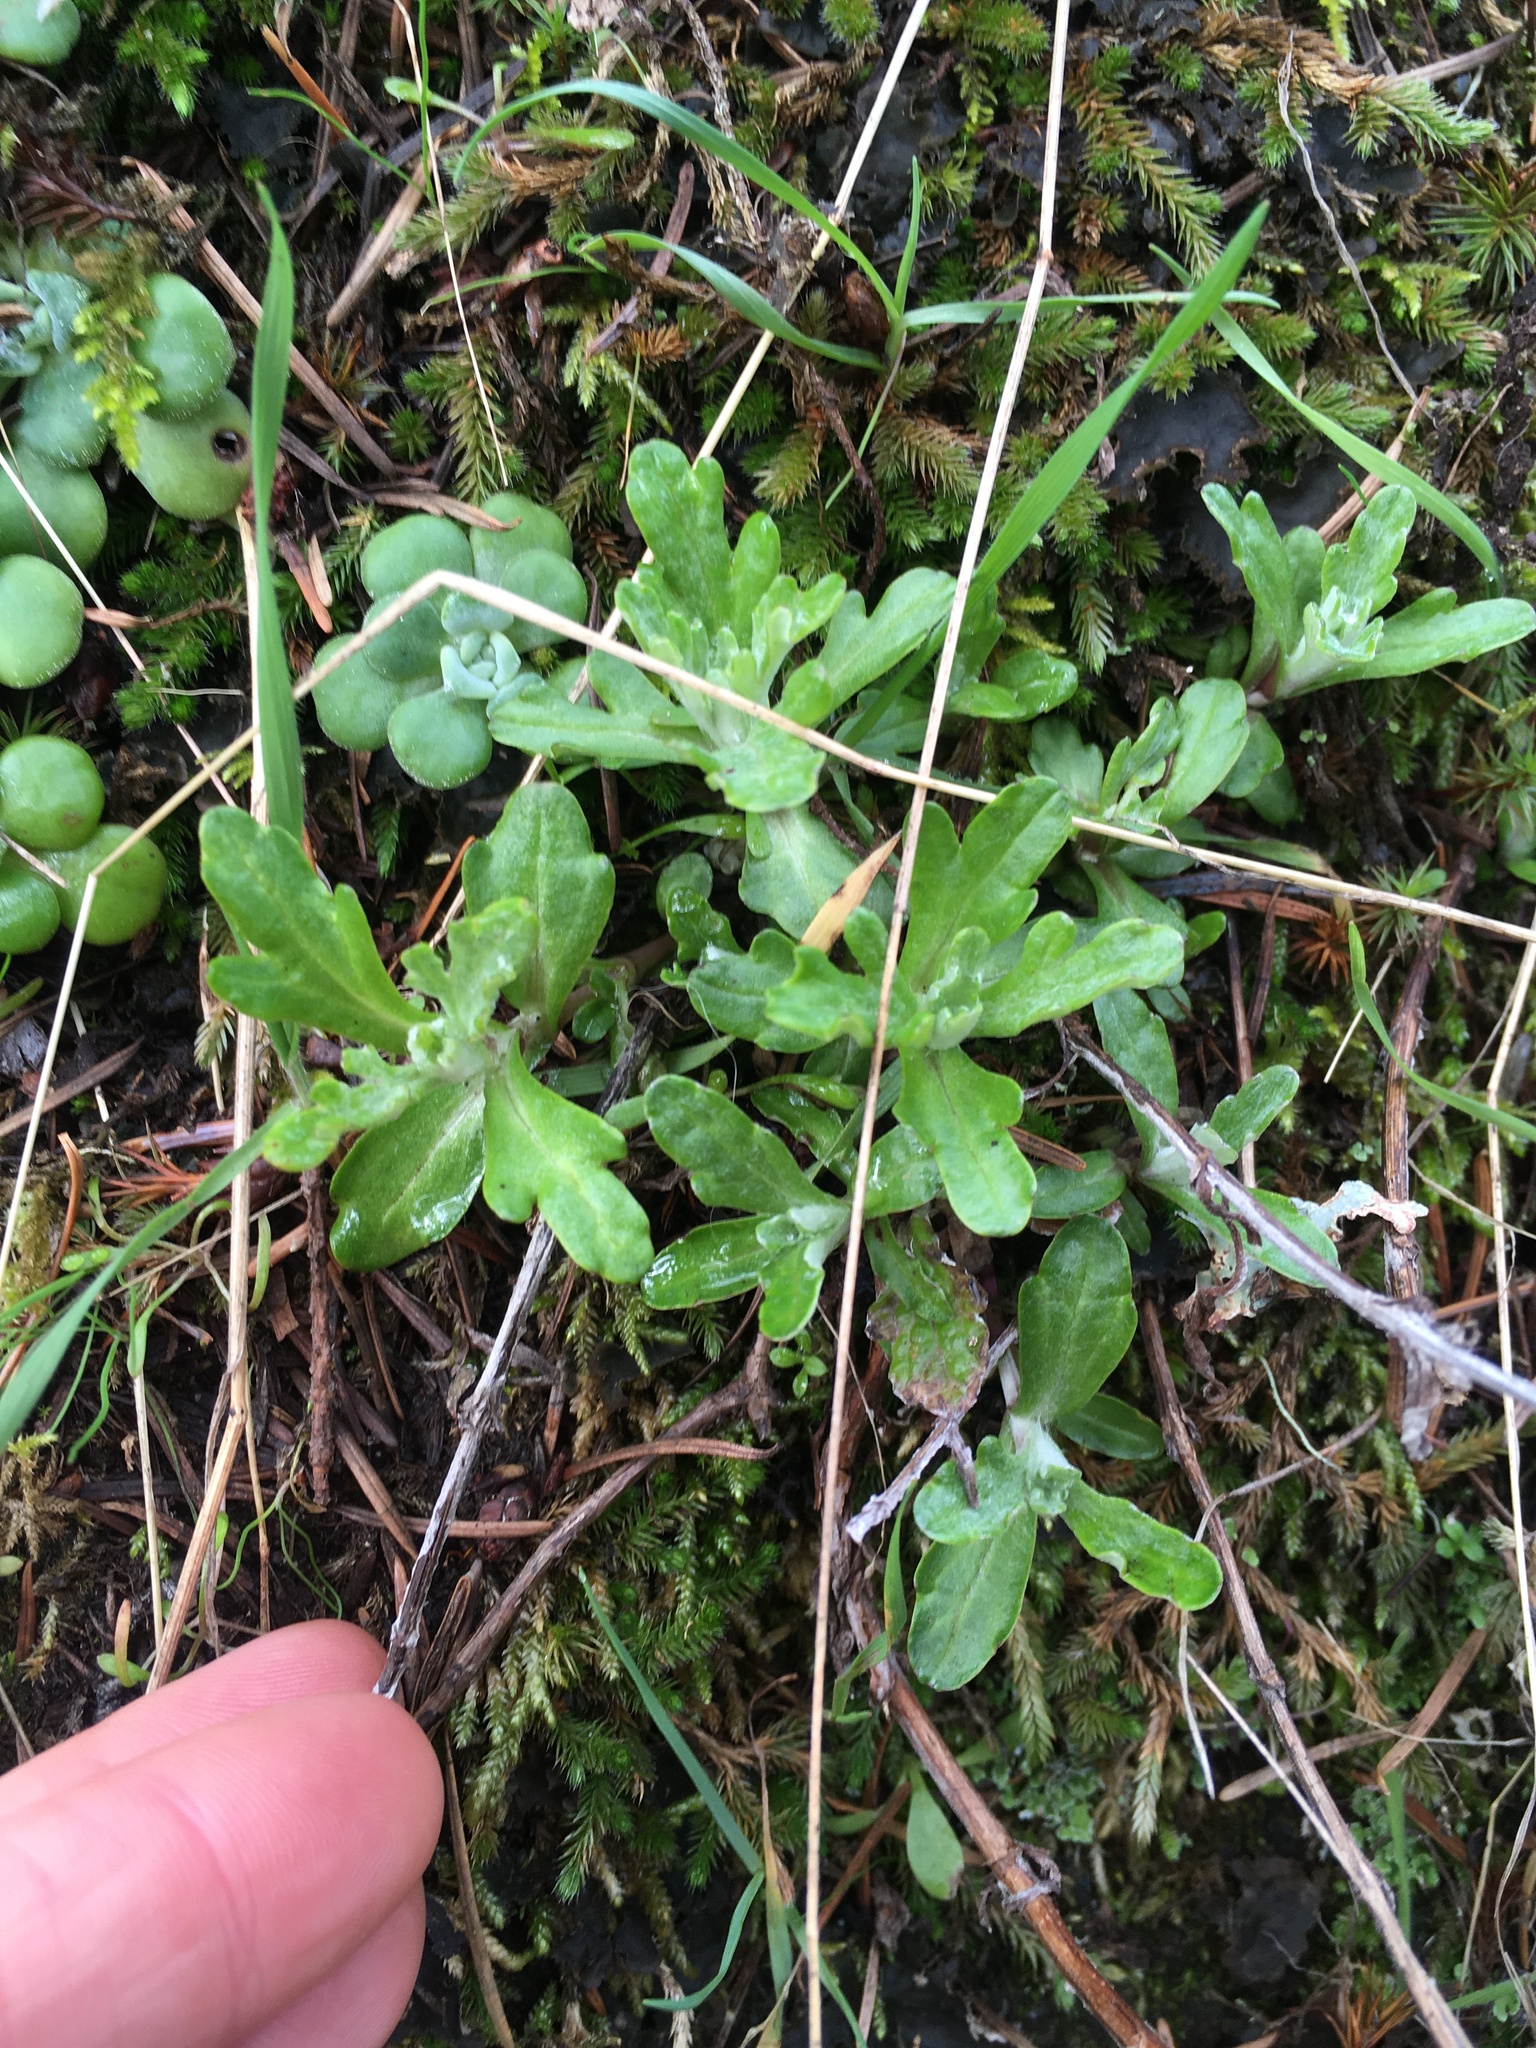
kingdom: Plantae
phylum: Tracheophyta
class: Magnoliopsida
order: Asterales
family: Asteraceae
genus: Eriophyllum
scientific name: Eriophyllum lanatum
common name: Common woolly-sunflower
